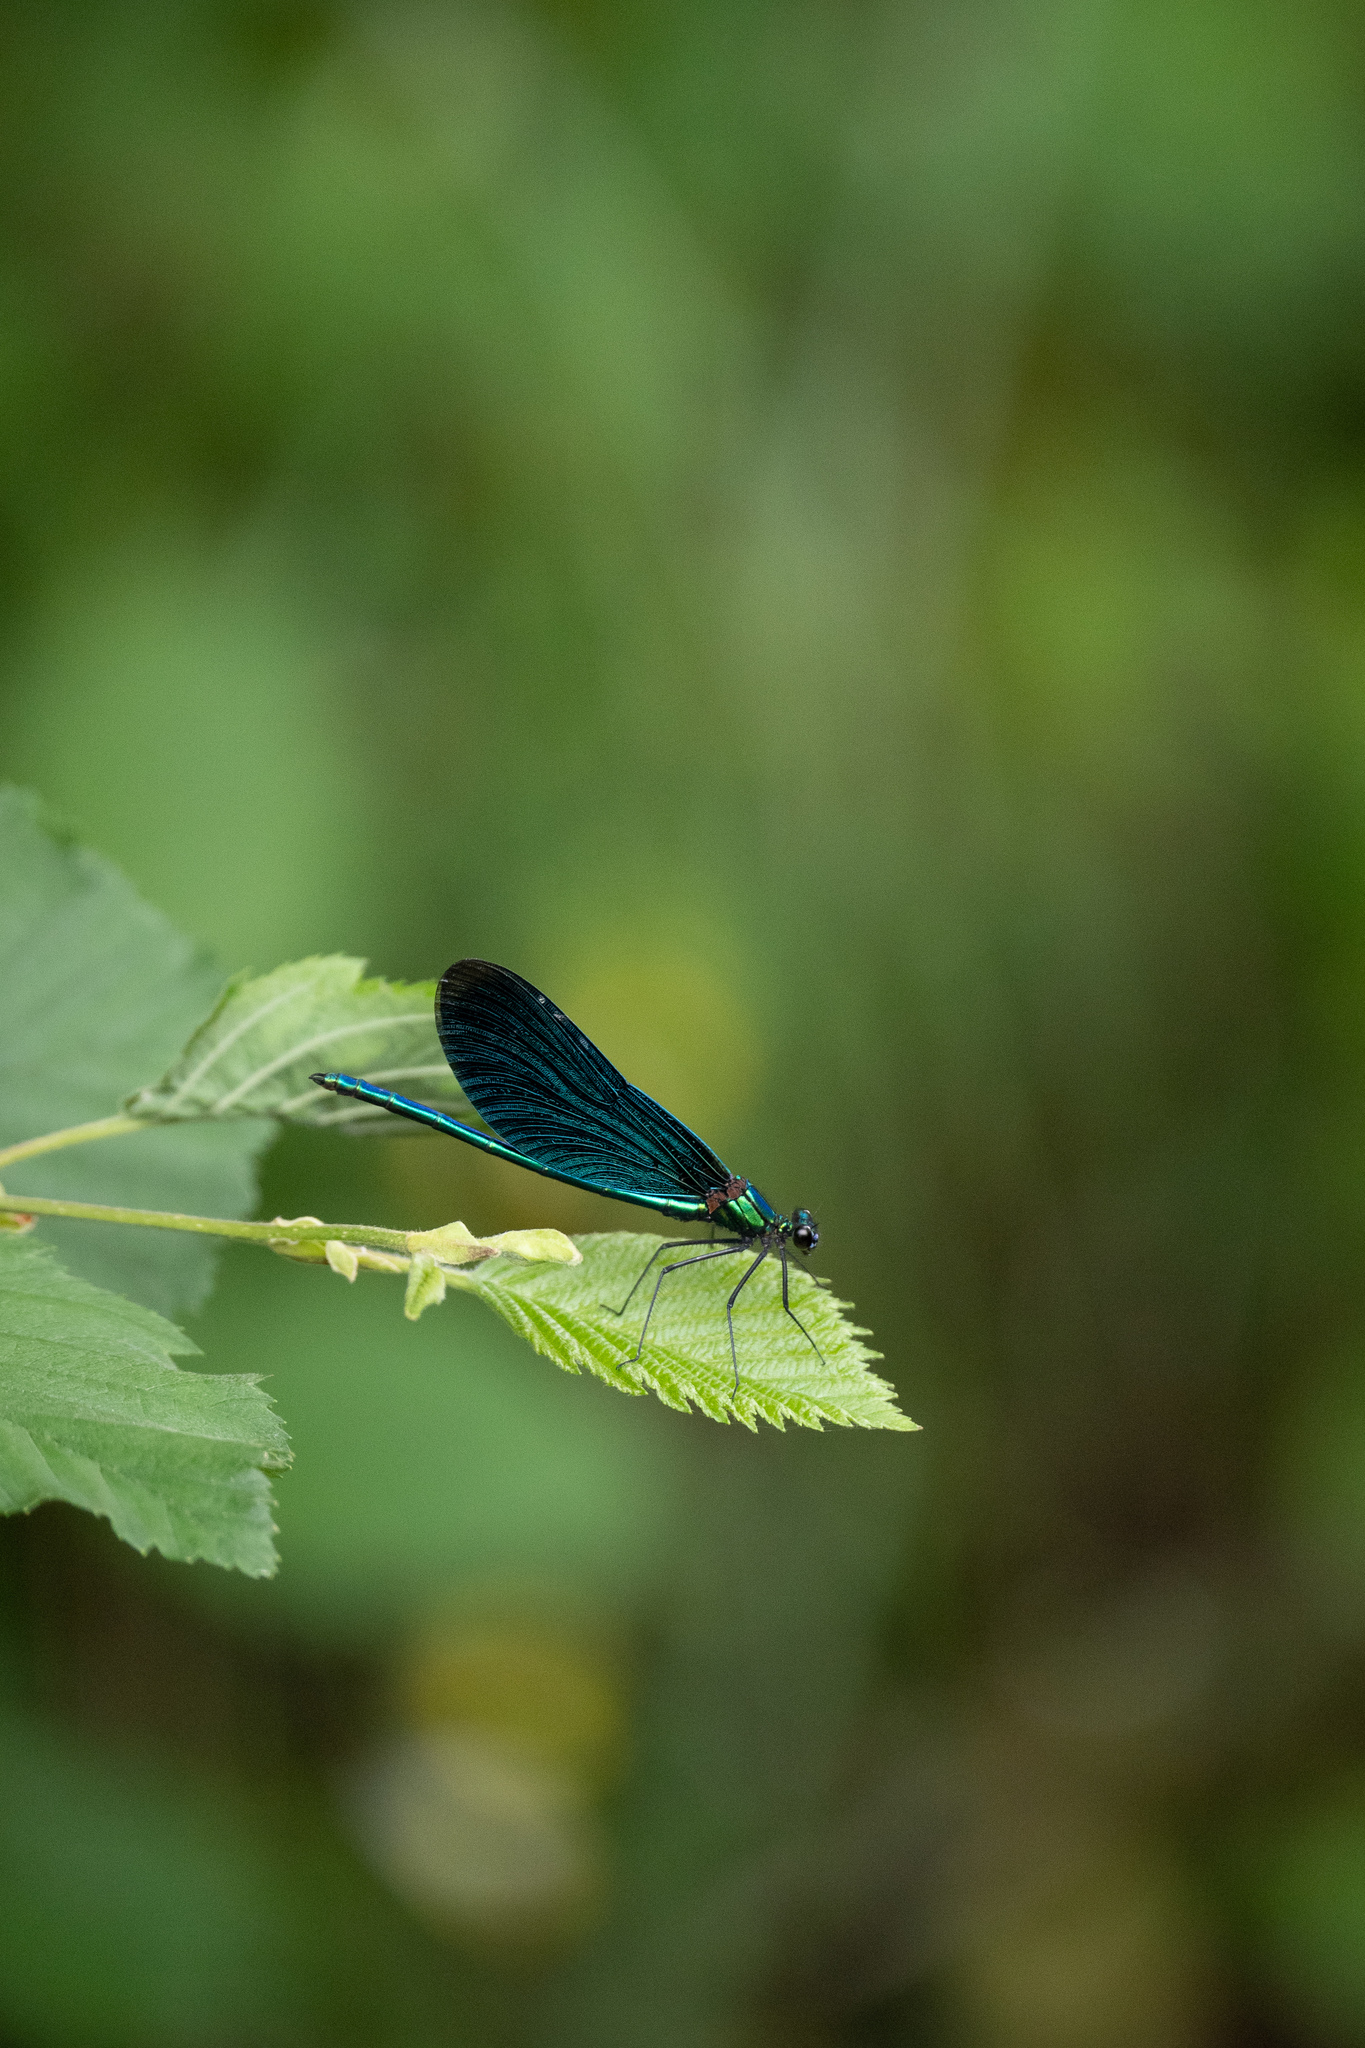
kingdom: Animalia
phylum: Arthropoda
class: Insecta
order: Odonata
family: Calopterygidae
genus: Calopteryx
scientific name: Calopteryx virgo
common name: Beautiful demoiselle
